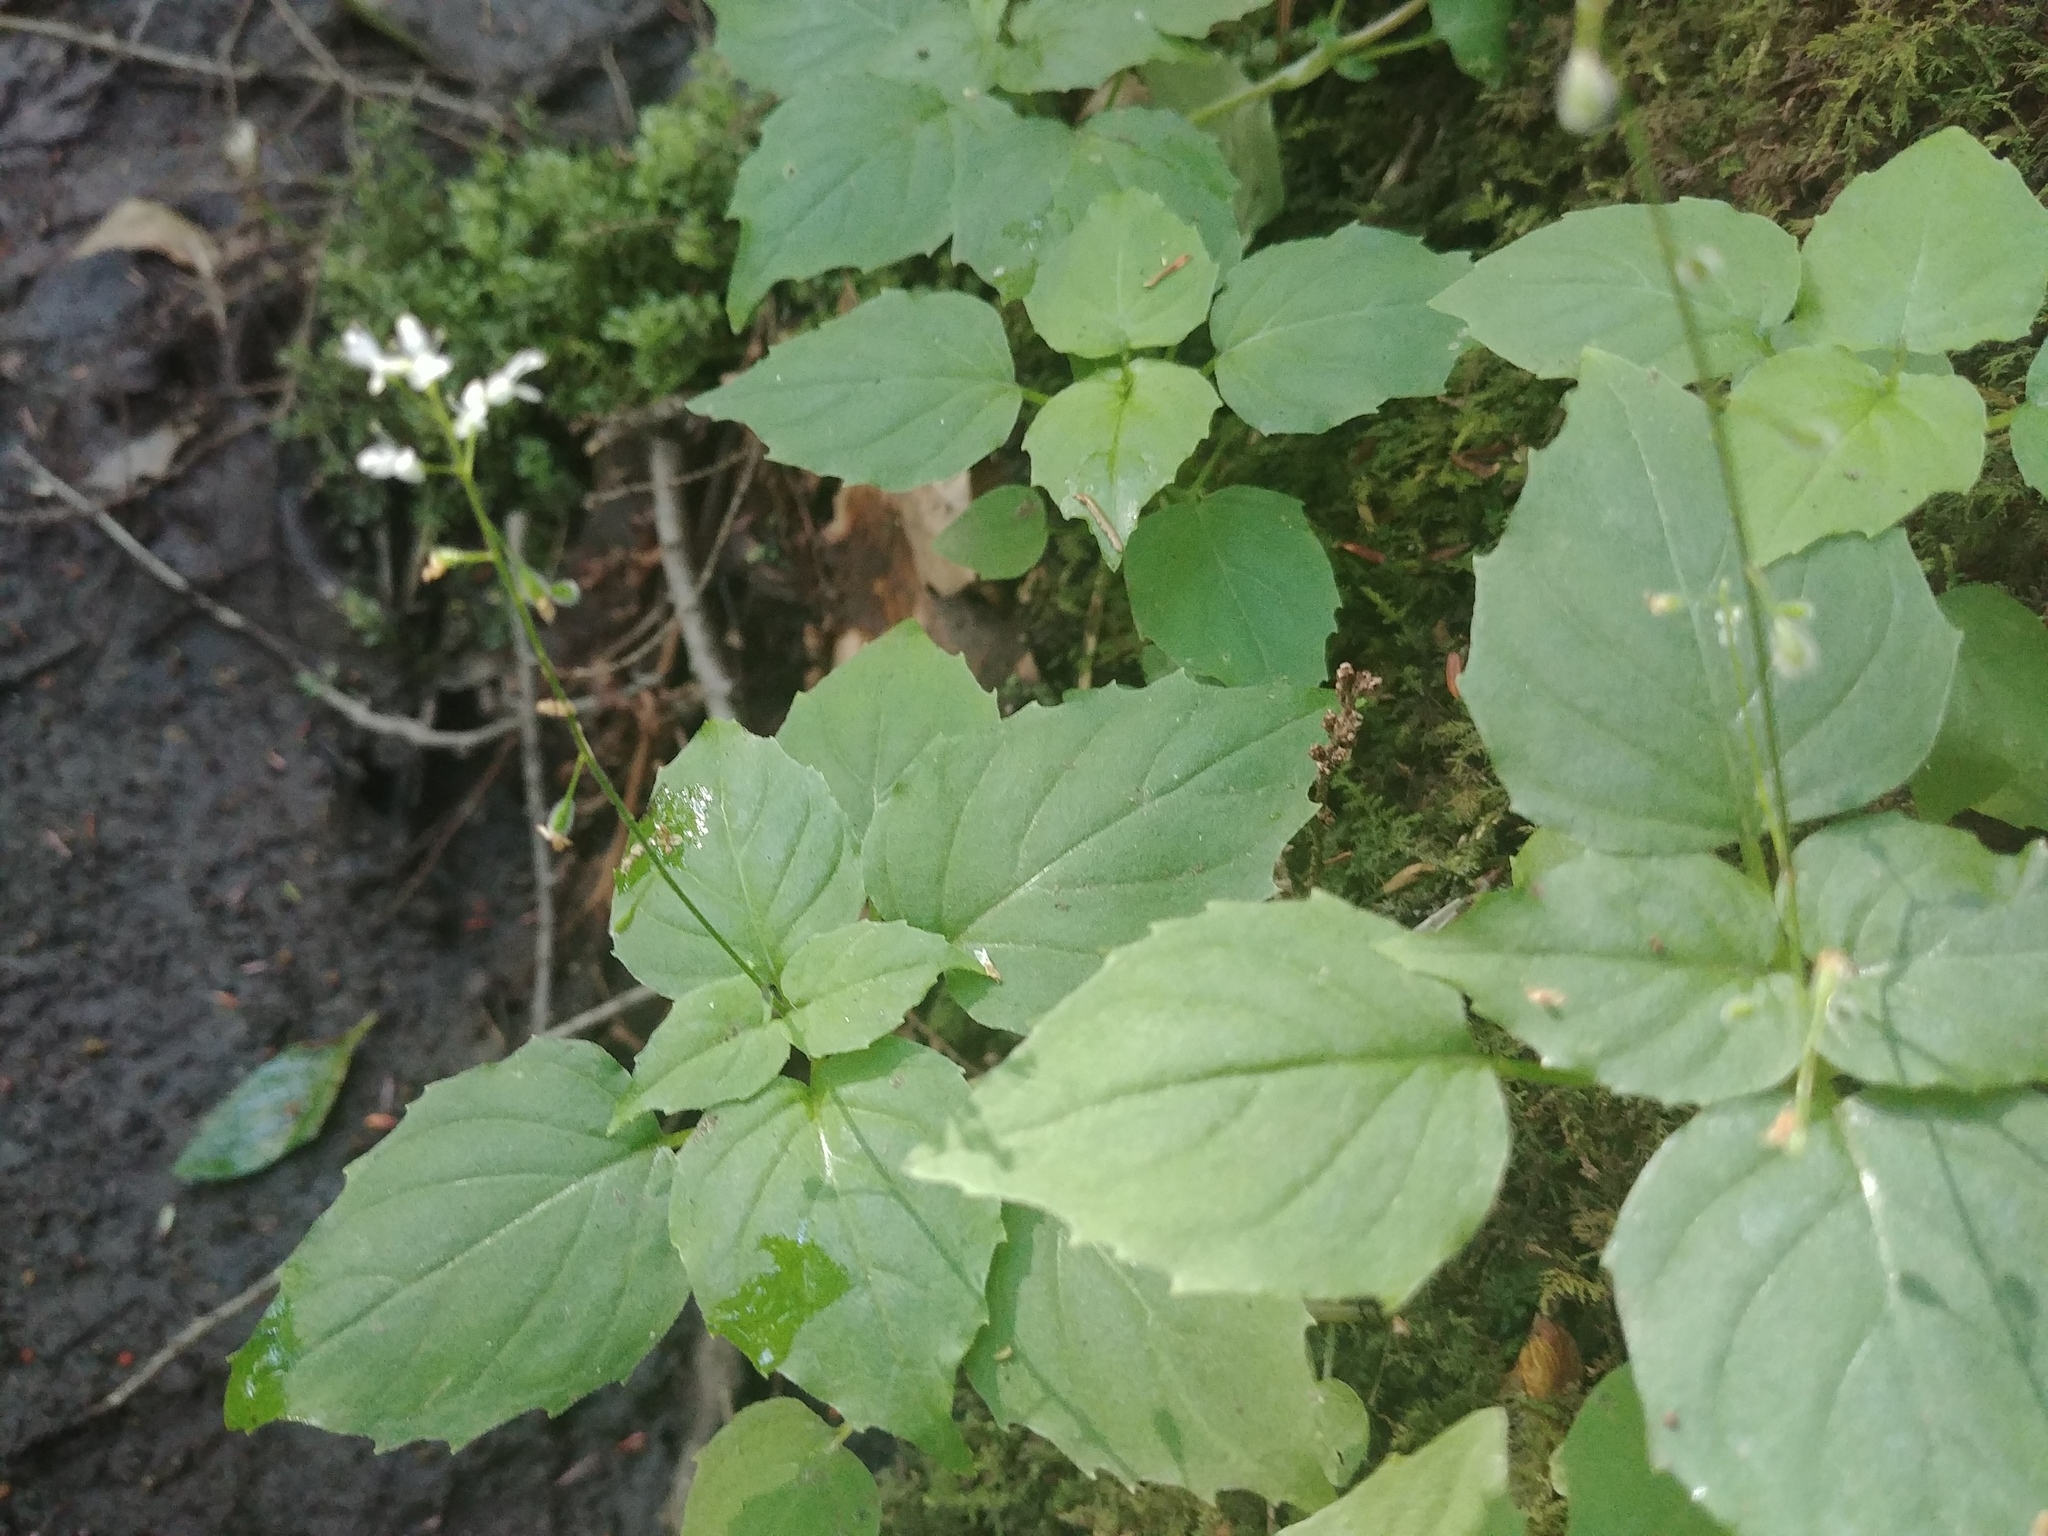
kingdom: Plantae
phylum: Tracheophyta
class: Magnoliopsida
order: Myrtales
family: Onagraceae
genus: Circaea
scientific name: Circaea alpina
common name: Alpine enchanter's-nightshade
